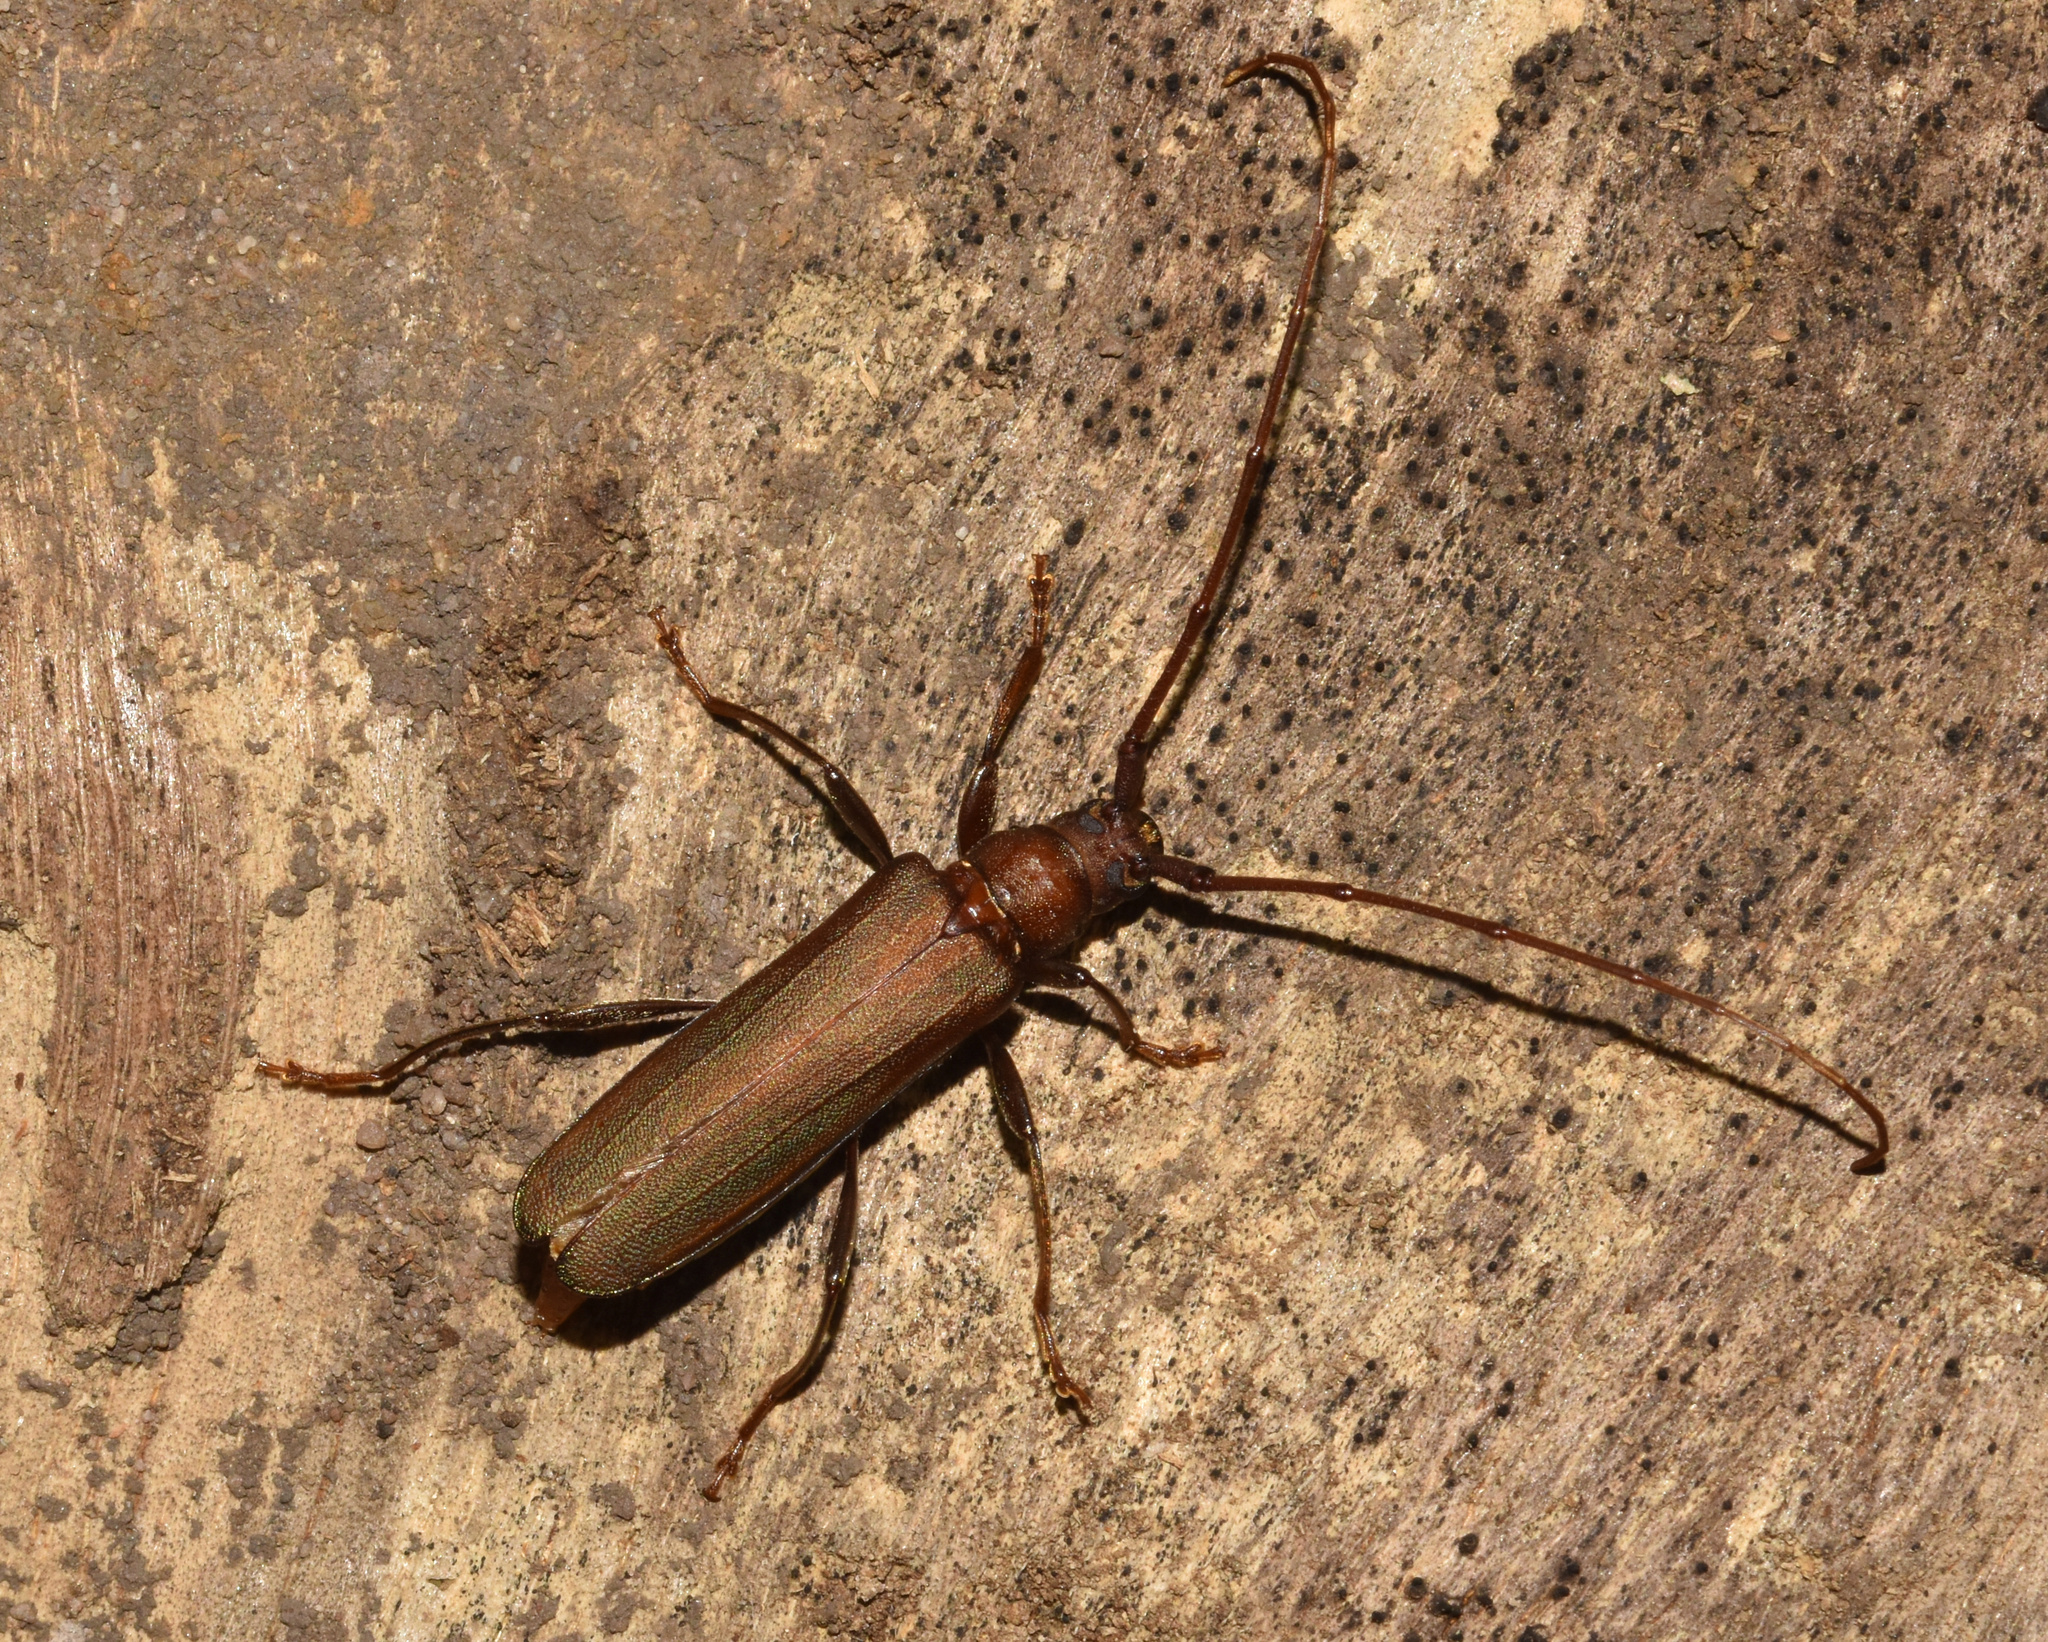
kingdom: Animalia
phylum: Arthropoda
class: Insecta
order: Coleoptera
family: Cerambycidae
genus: Xystrocera
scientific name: Xystrocera erosa
